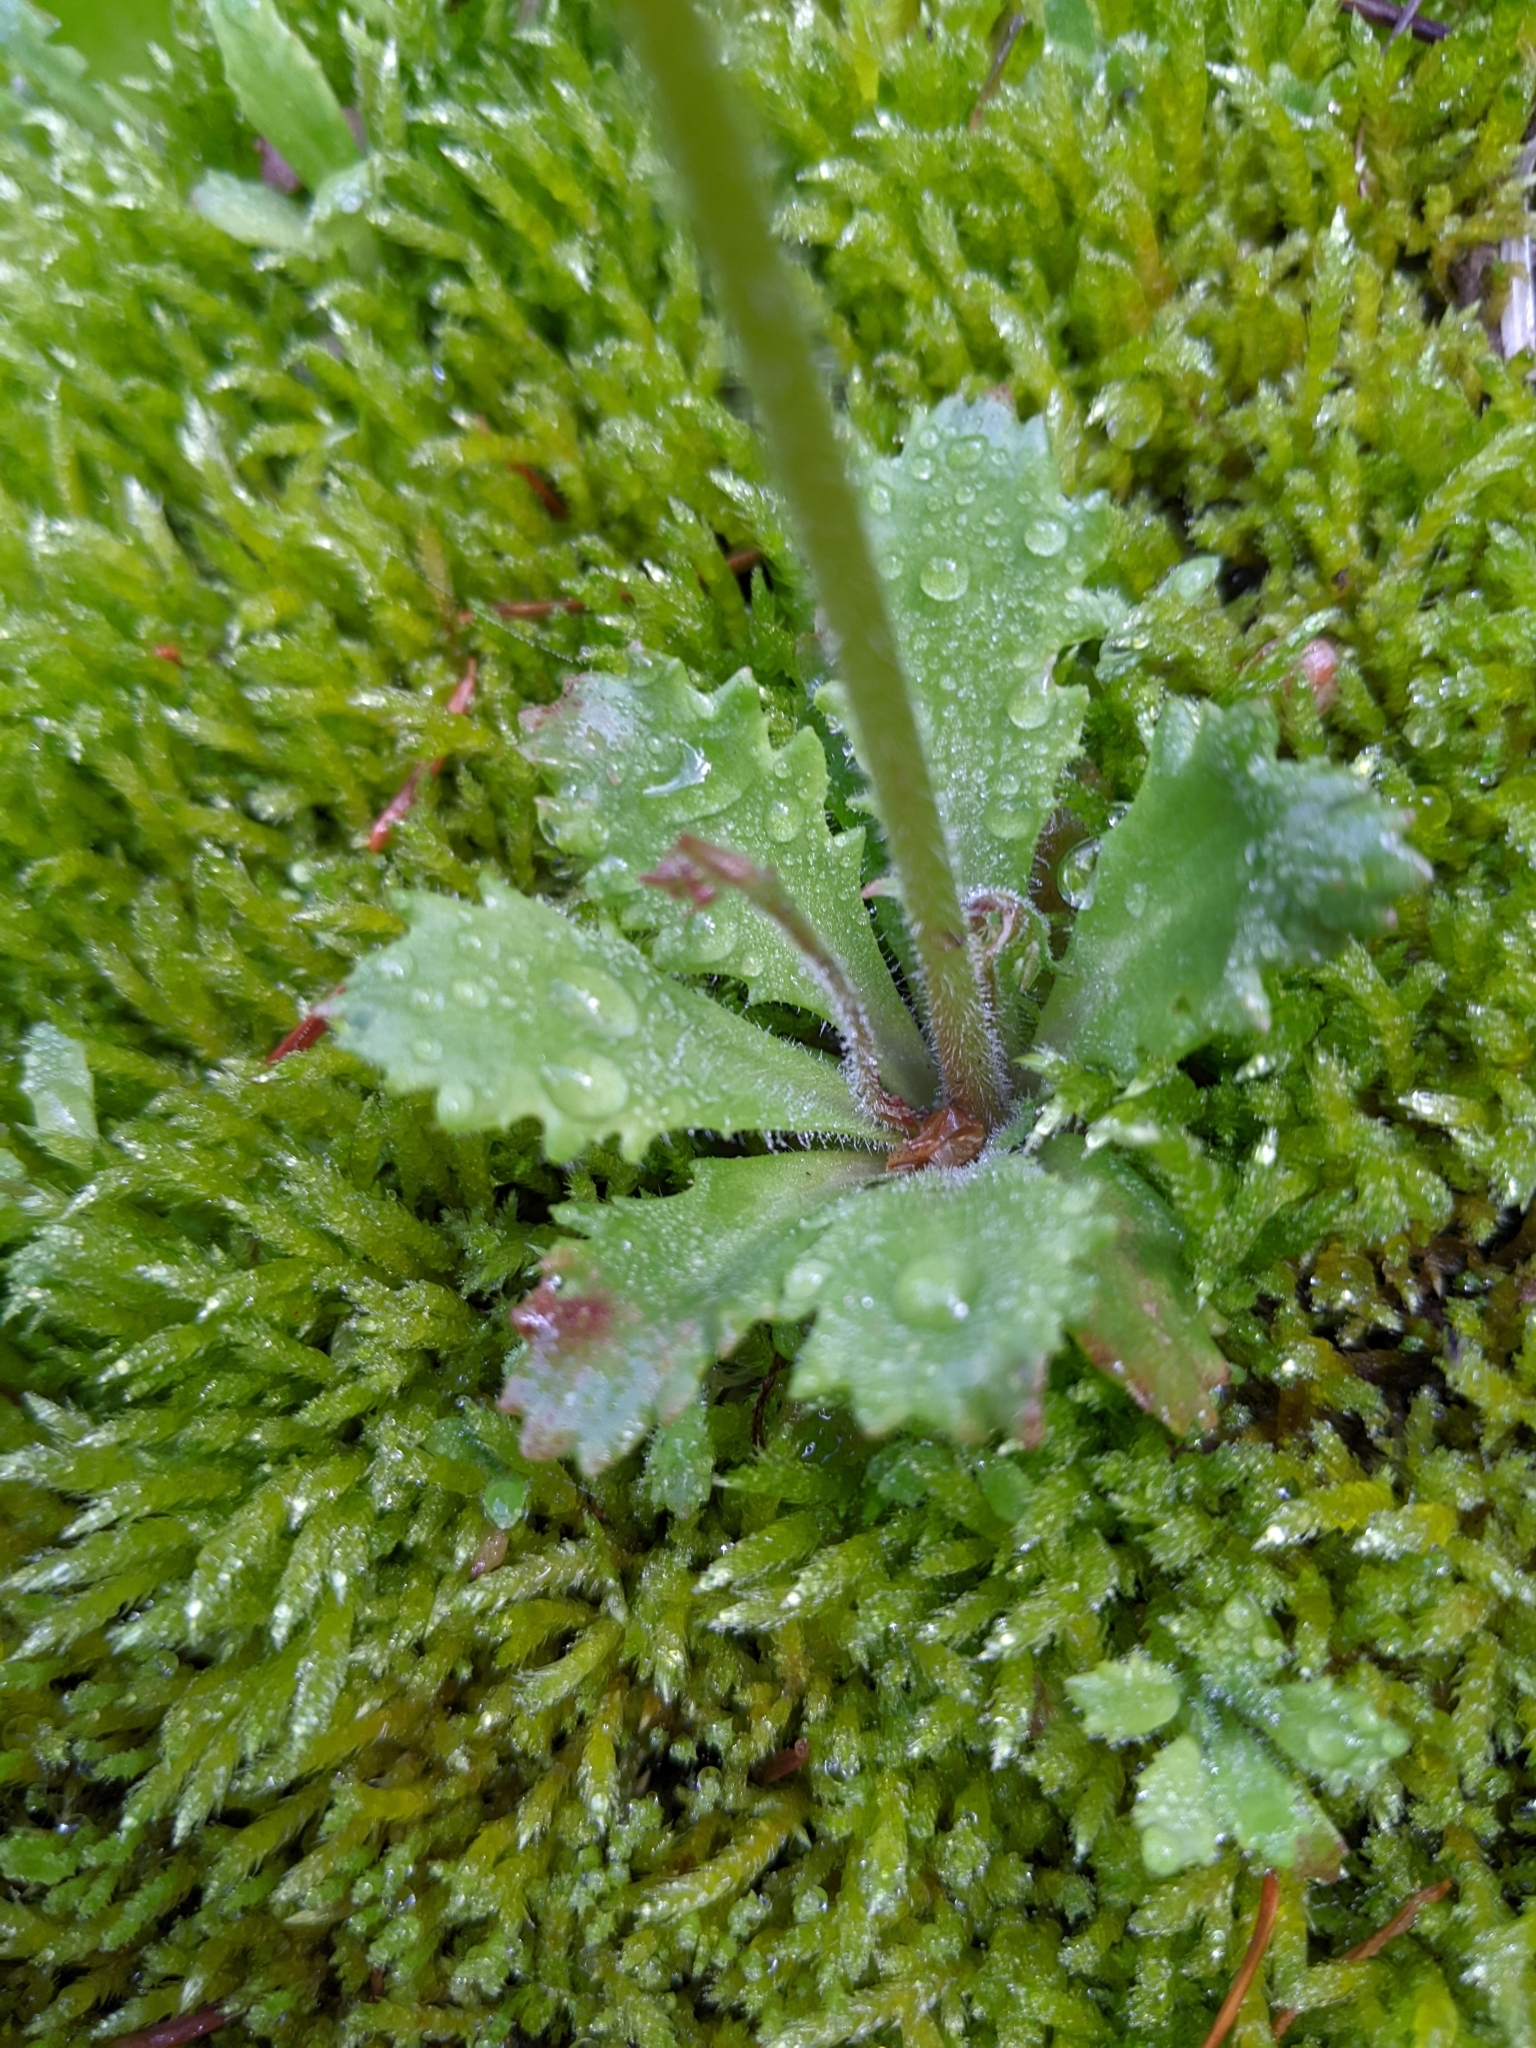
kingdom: Plantae
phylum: Tracheophyta
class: Magnoliopsida
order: Saxifragales
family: Saxifragaceae
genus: Micranthes
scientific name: Micranthes ferruginea
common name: Rusty saxifrage
